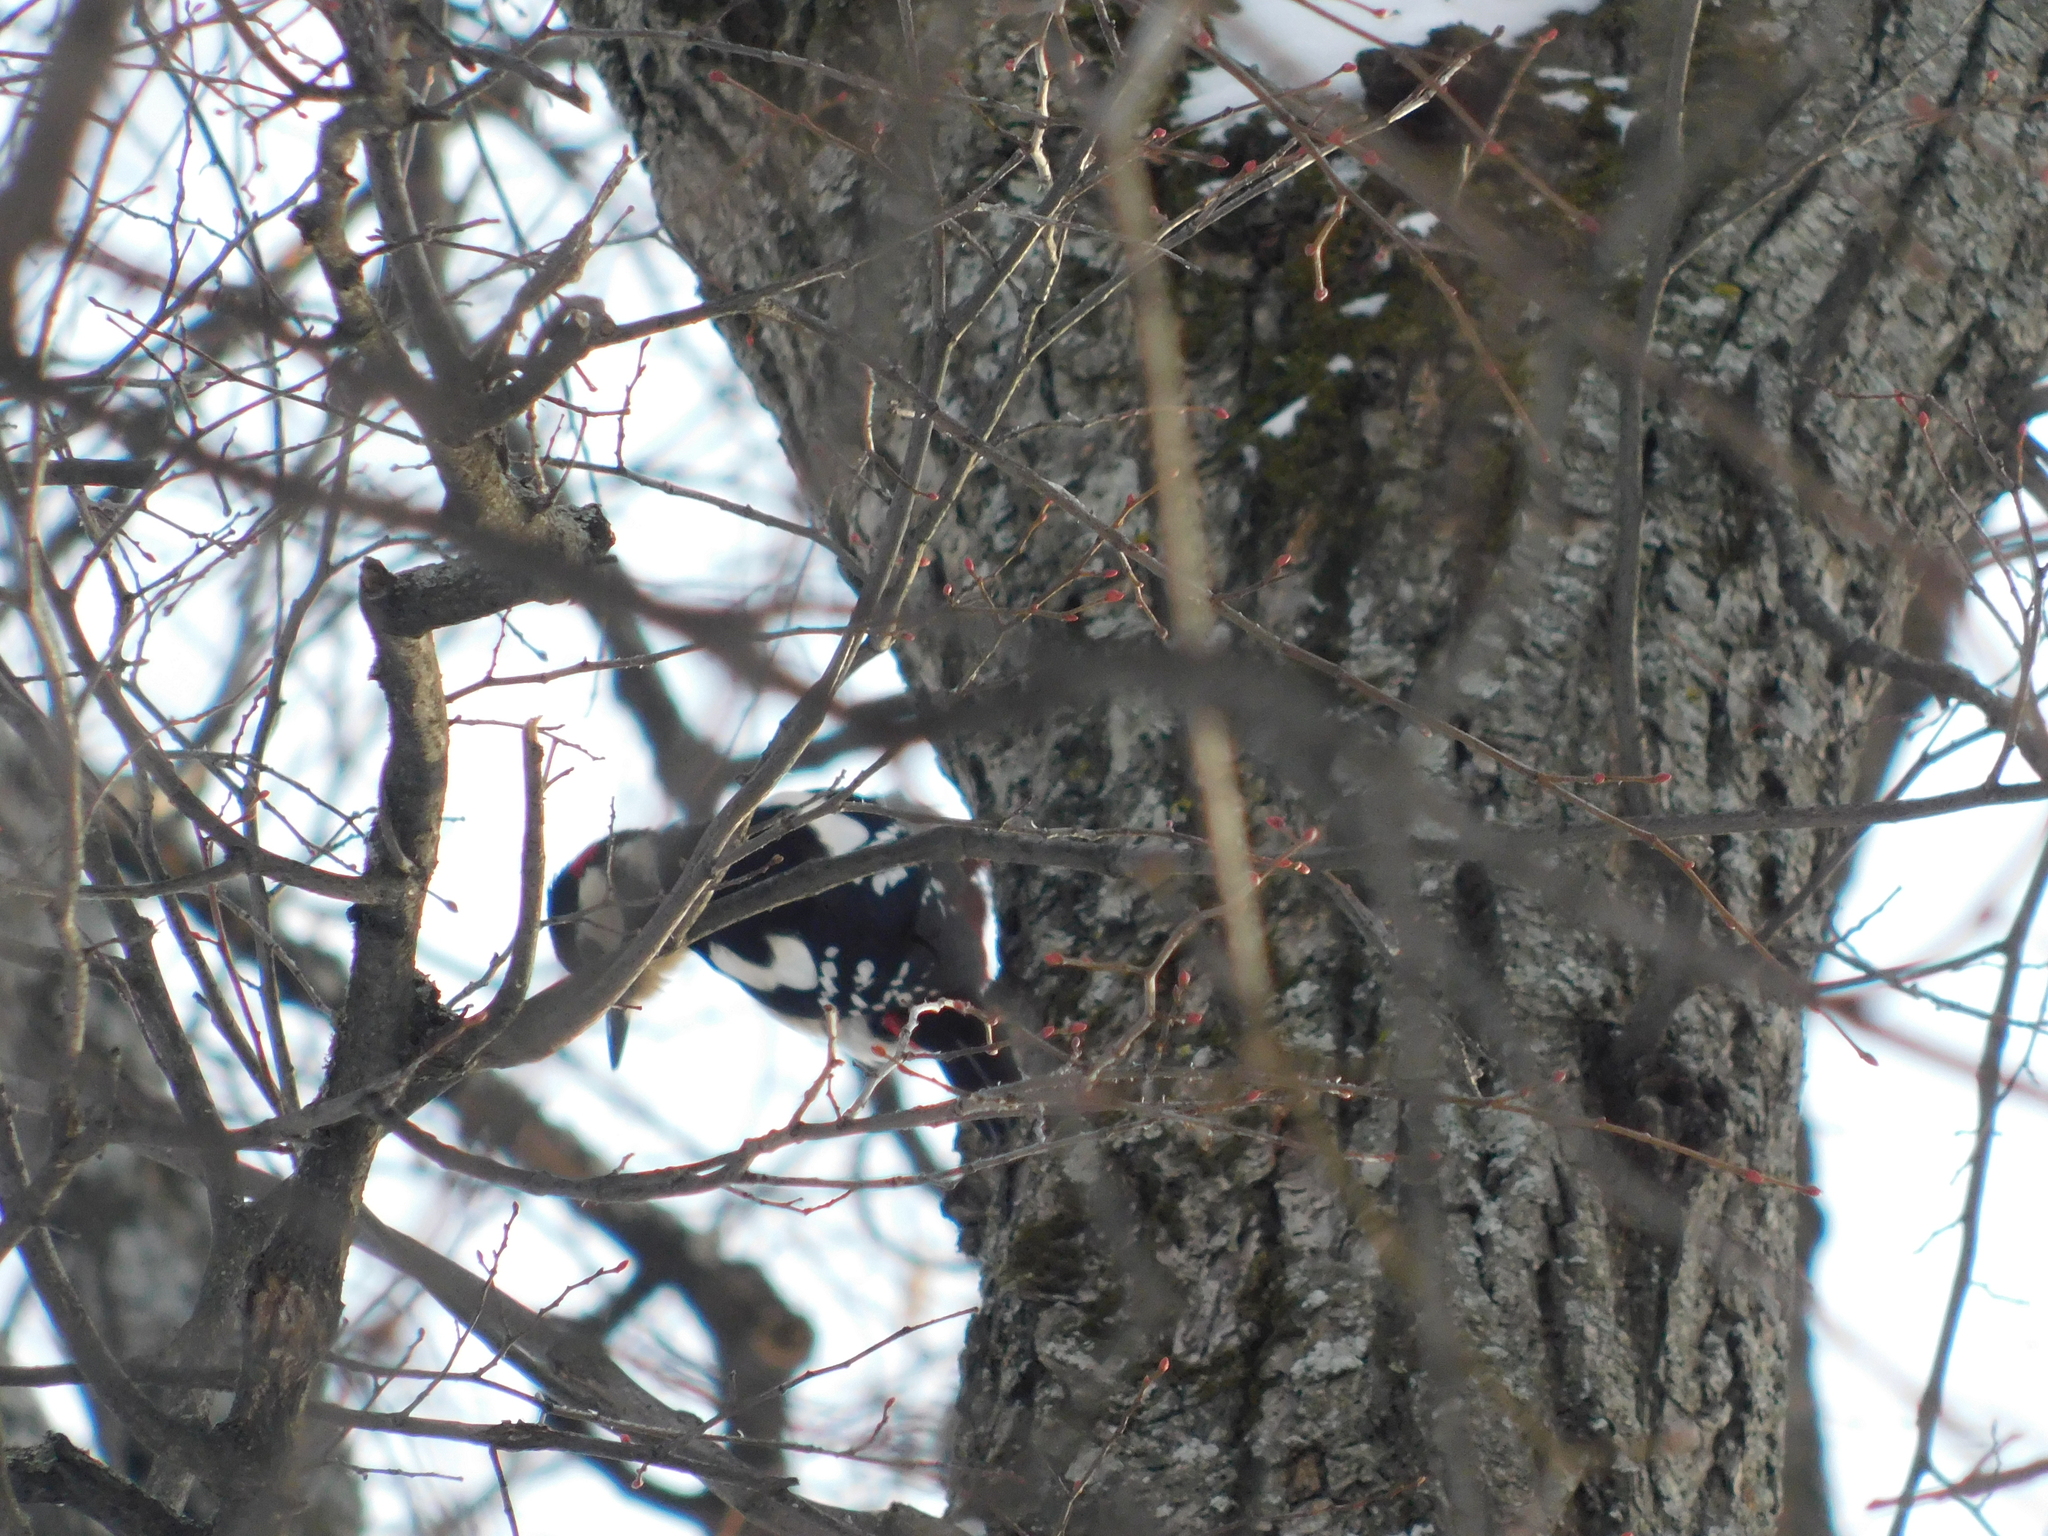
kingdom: Animalia
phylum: Chordata
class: Aves
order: Piciformes
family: Picidae
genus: Dendrocopos
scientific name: Dendrocopos major
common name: Great spotted woodpecker
